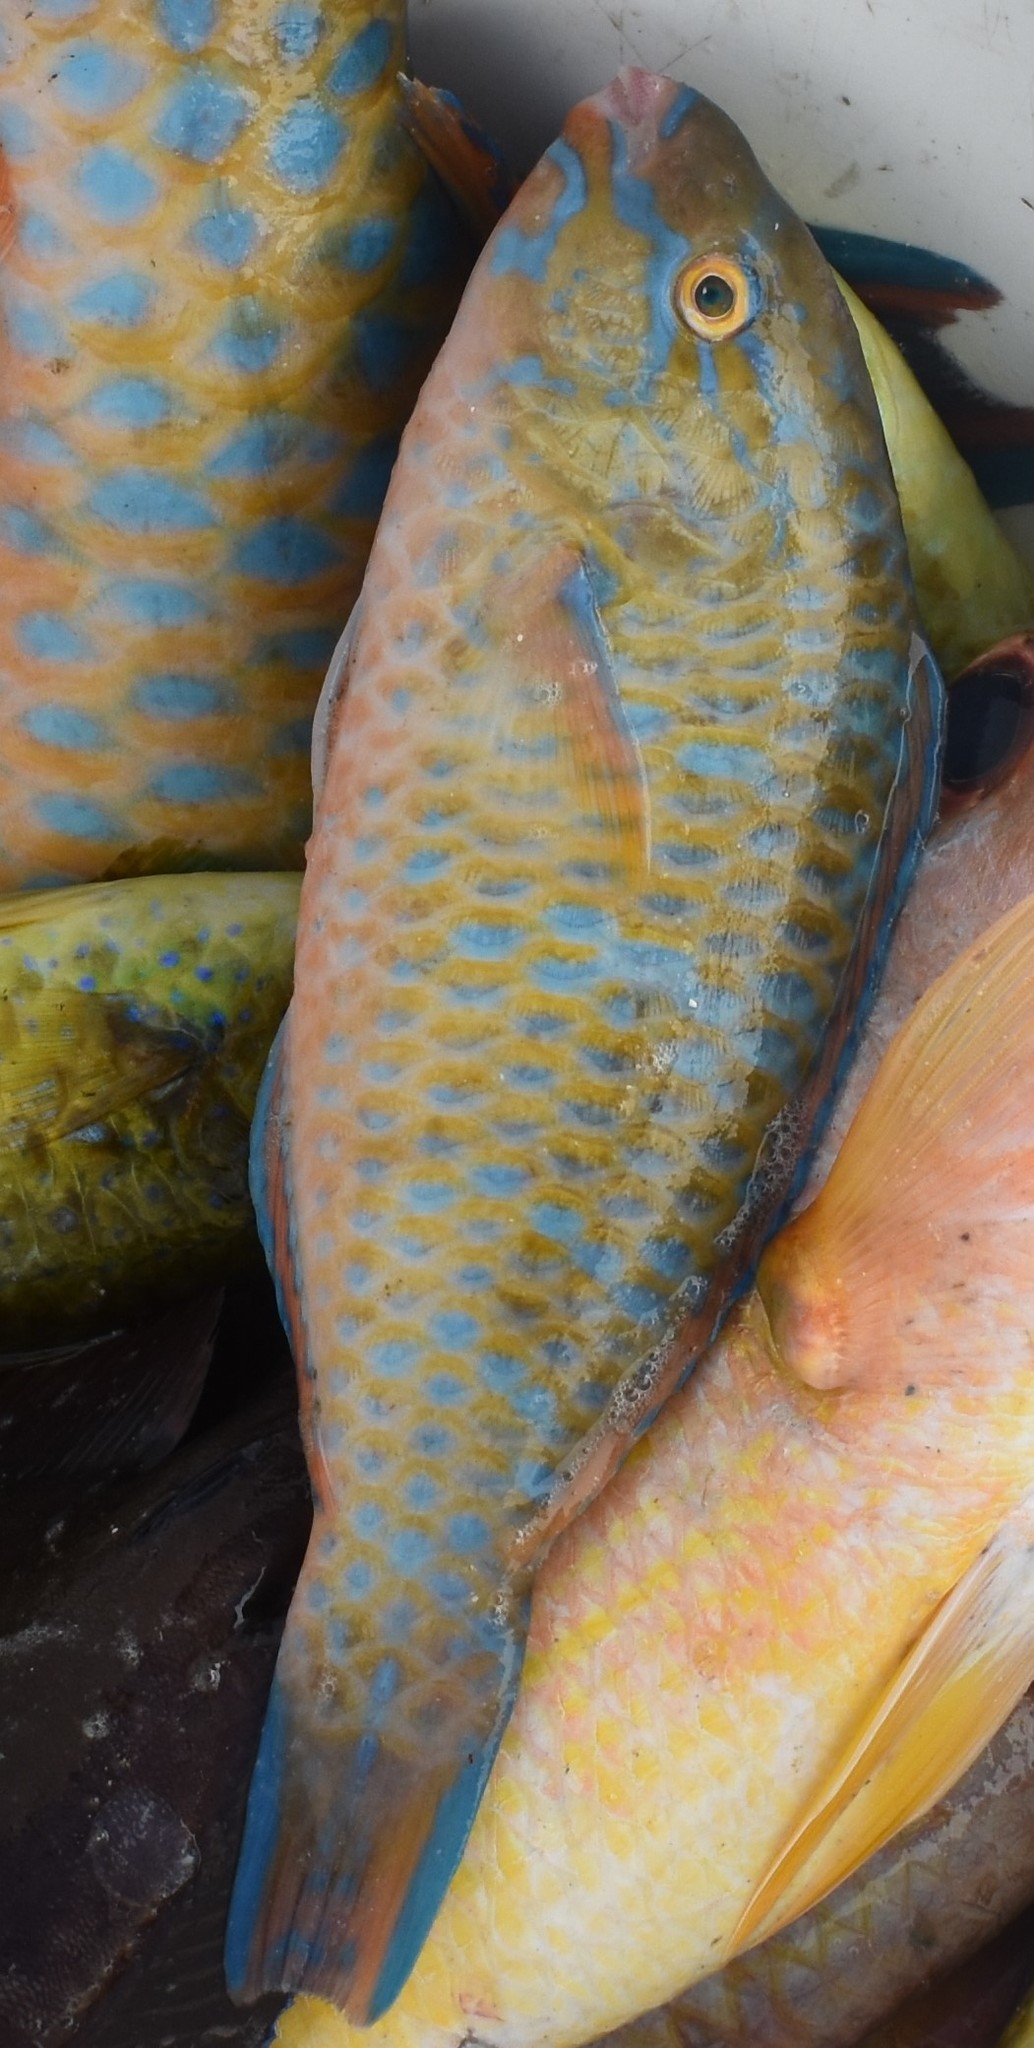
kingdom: Animalia
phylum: Chordata
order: Perciformes
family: Scaridae
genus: Scarus
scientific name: Scarus ghobban
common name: Blue-barred parrotfish
